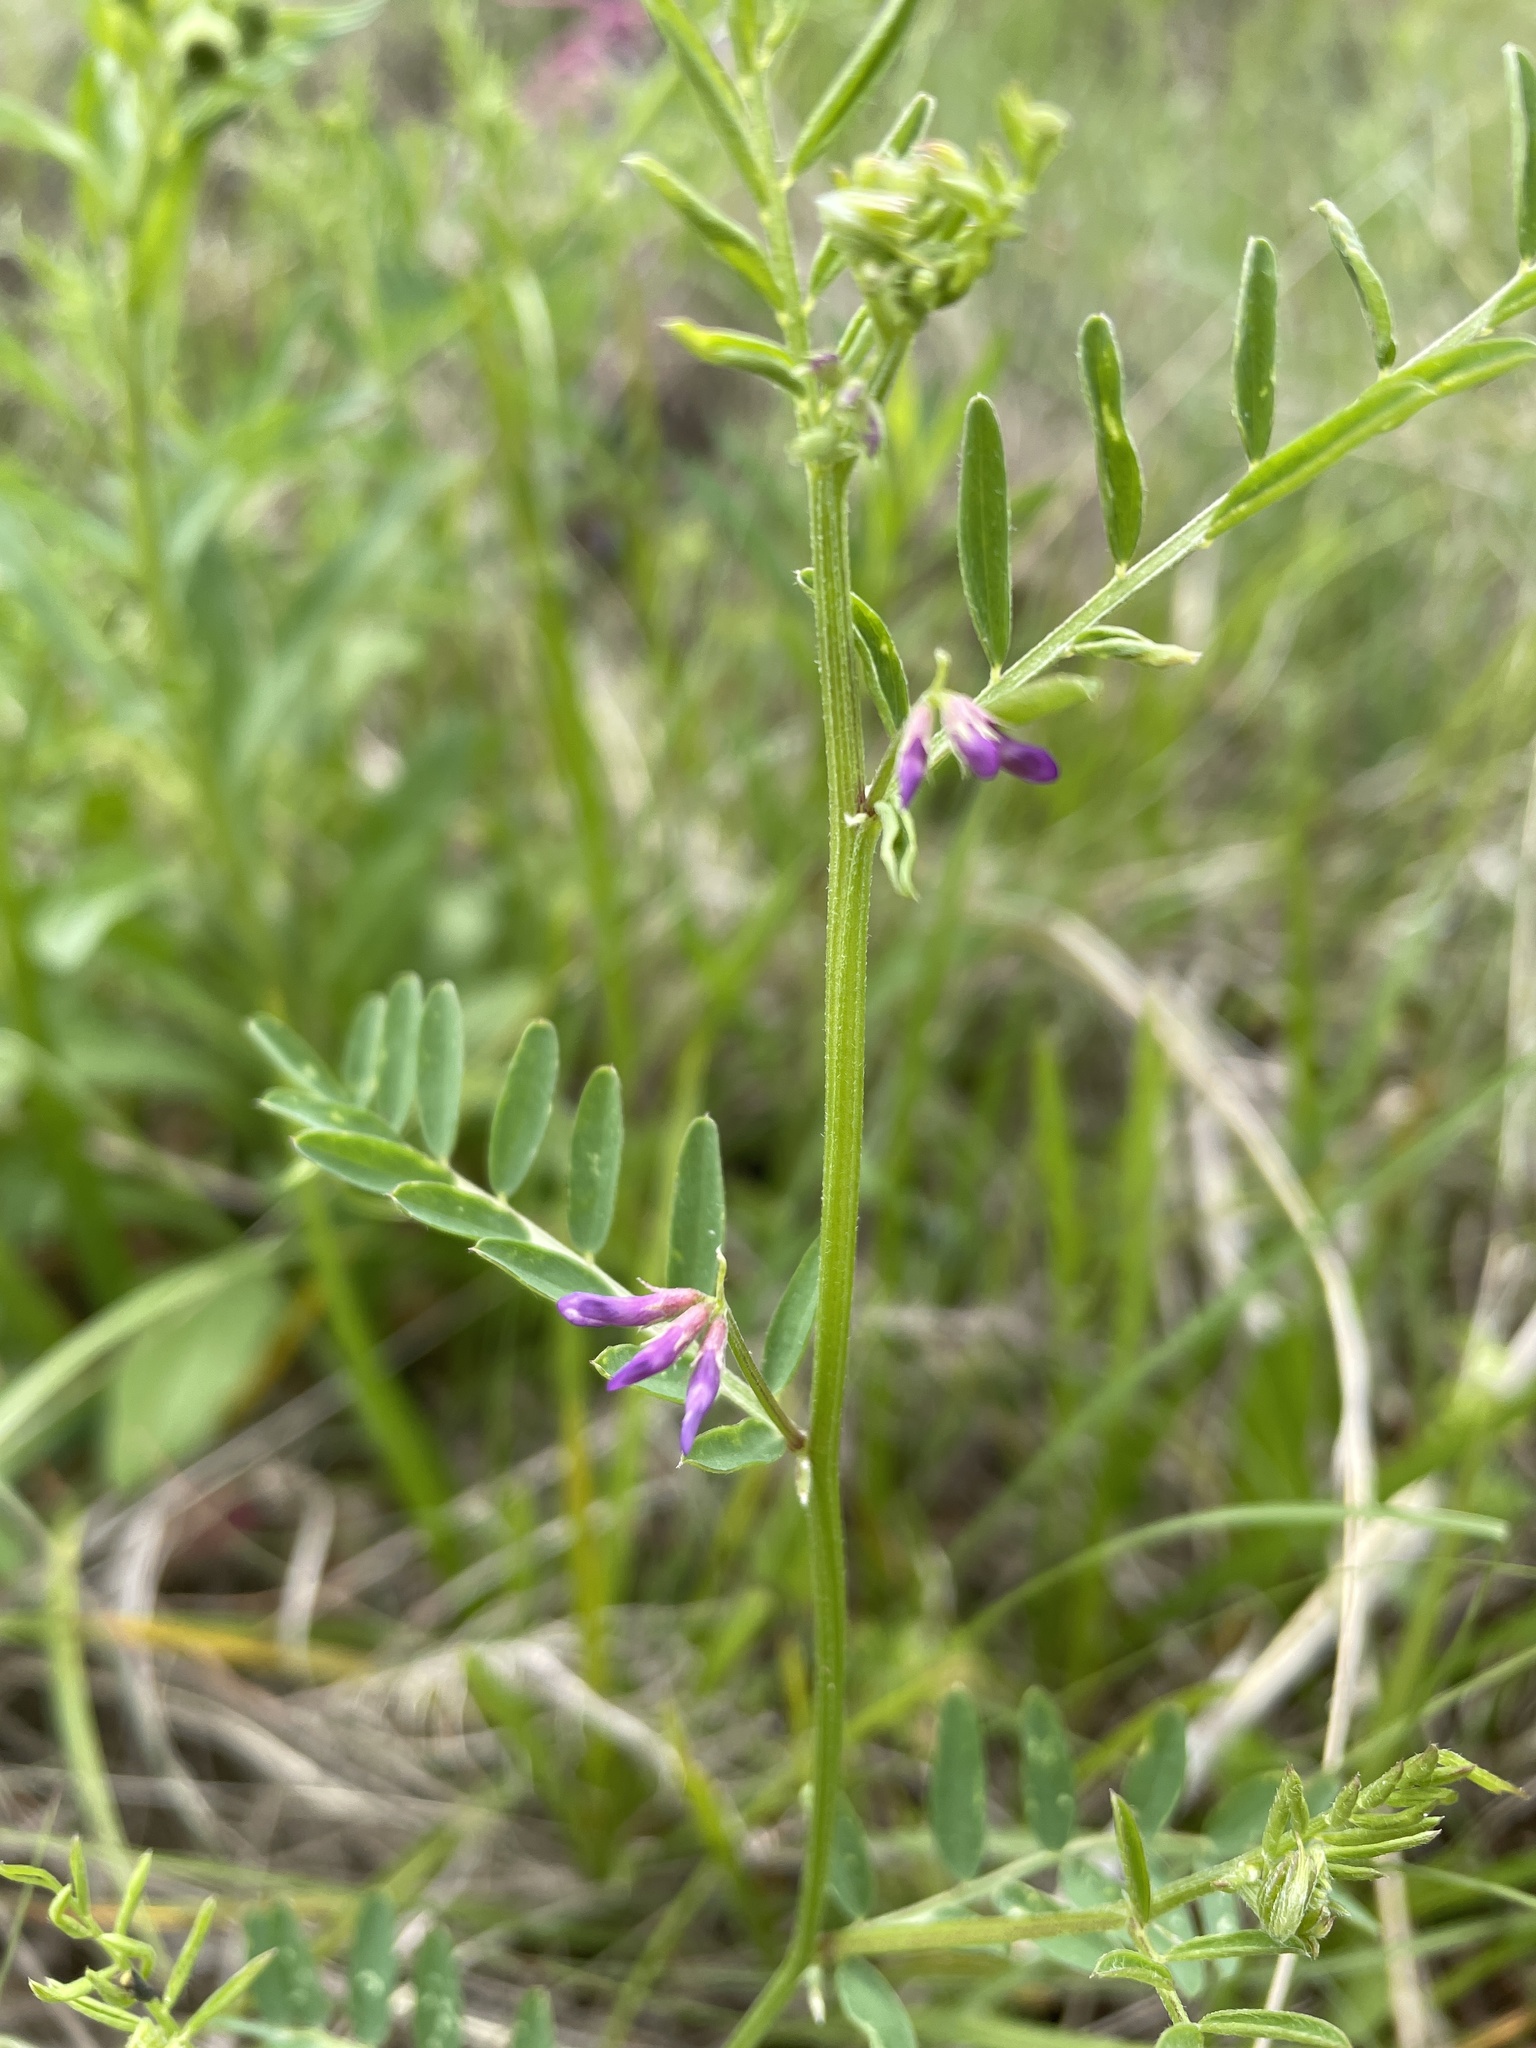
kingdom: Plantae
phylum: Tracheophyta
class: Magnoliopsida
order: Fabales
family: Fabaceae
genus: Vicia
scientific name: Vicia ludoviciana
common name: Louisiana vetch
